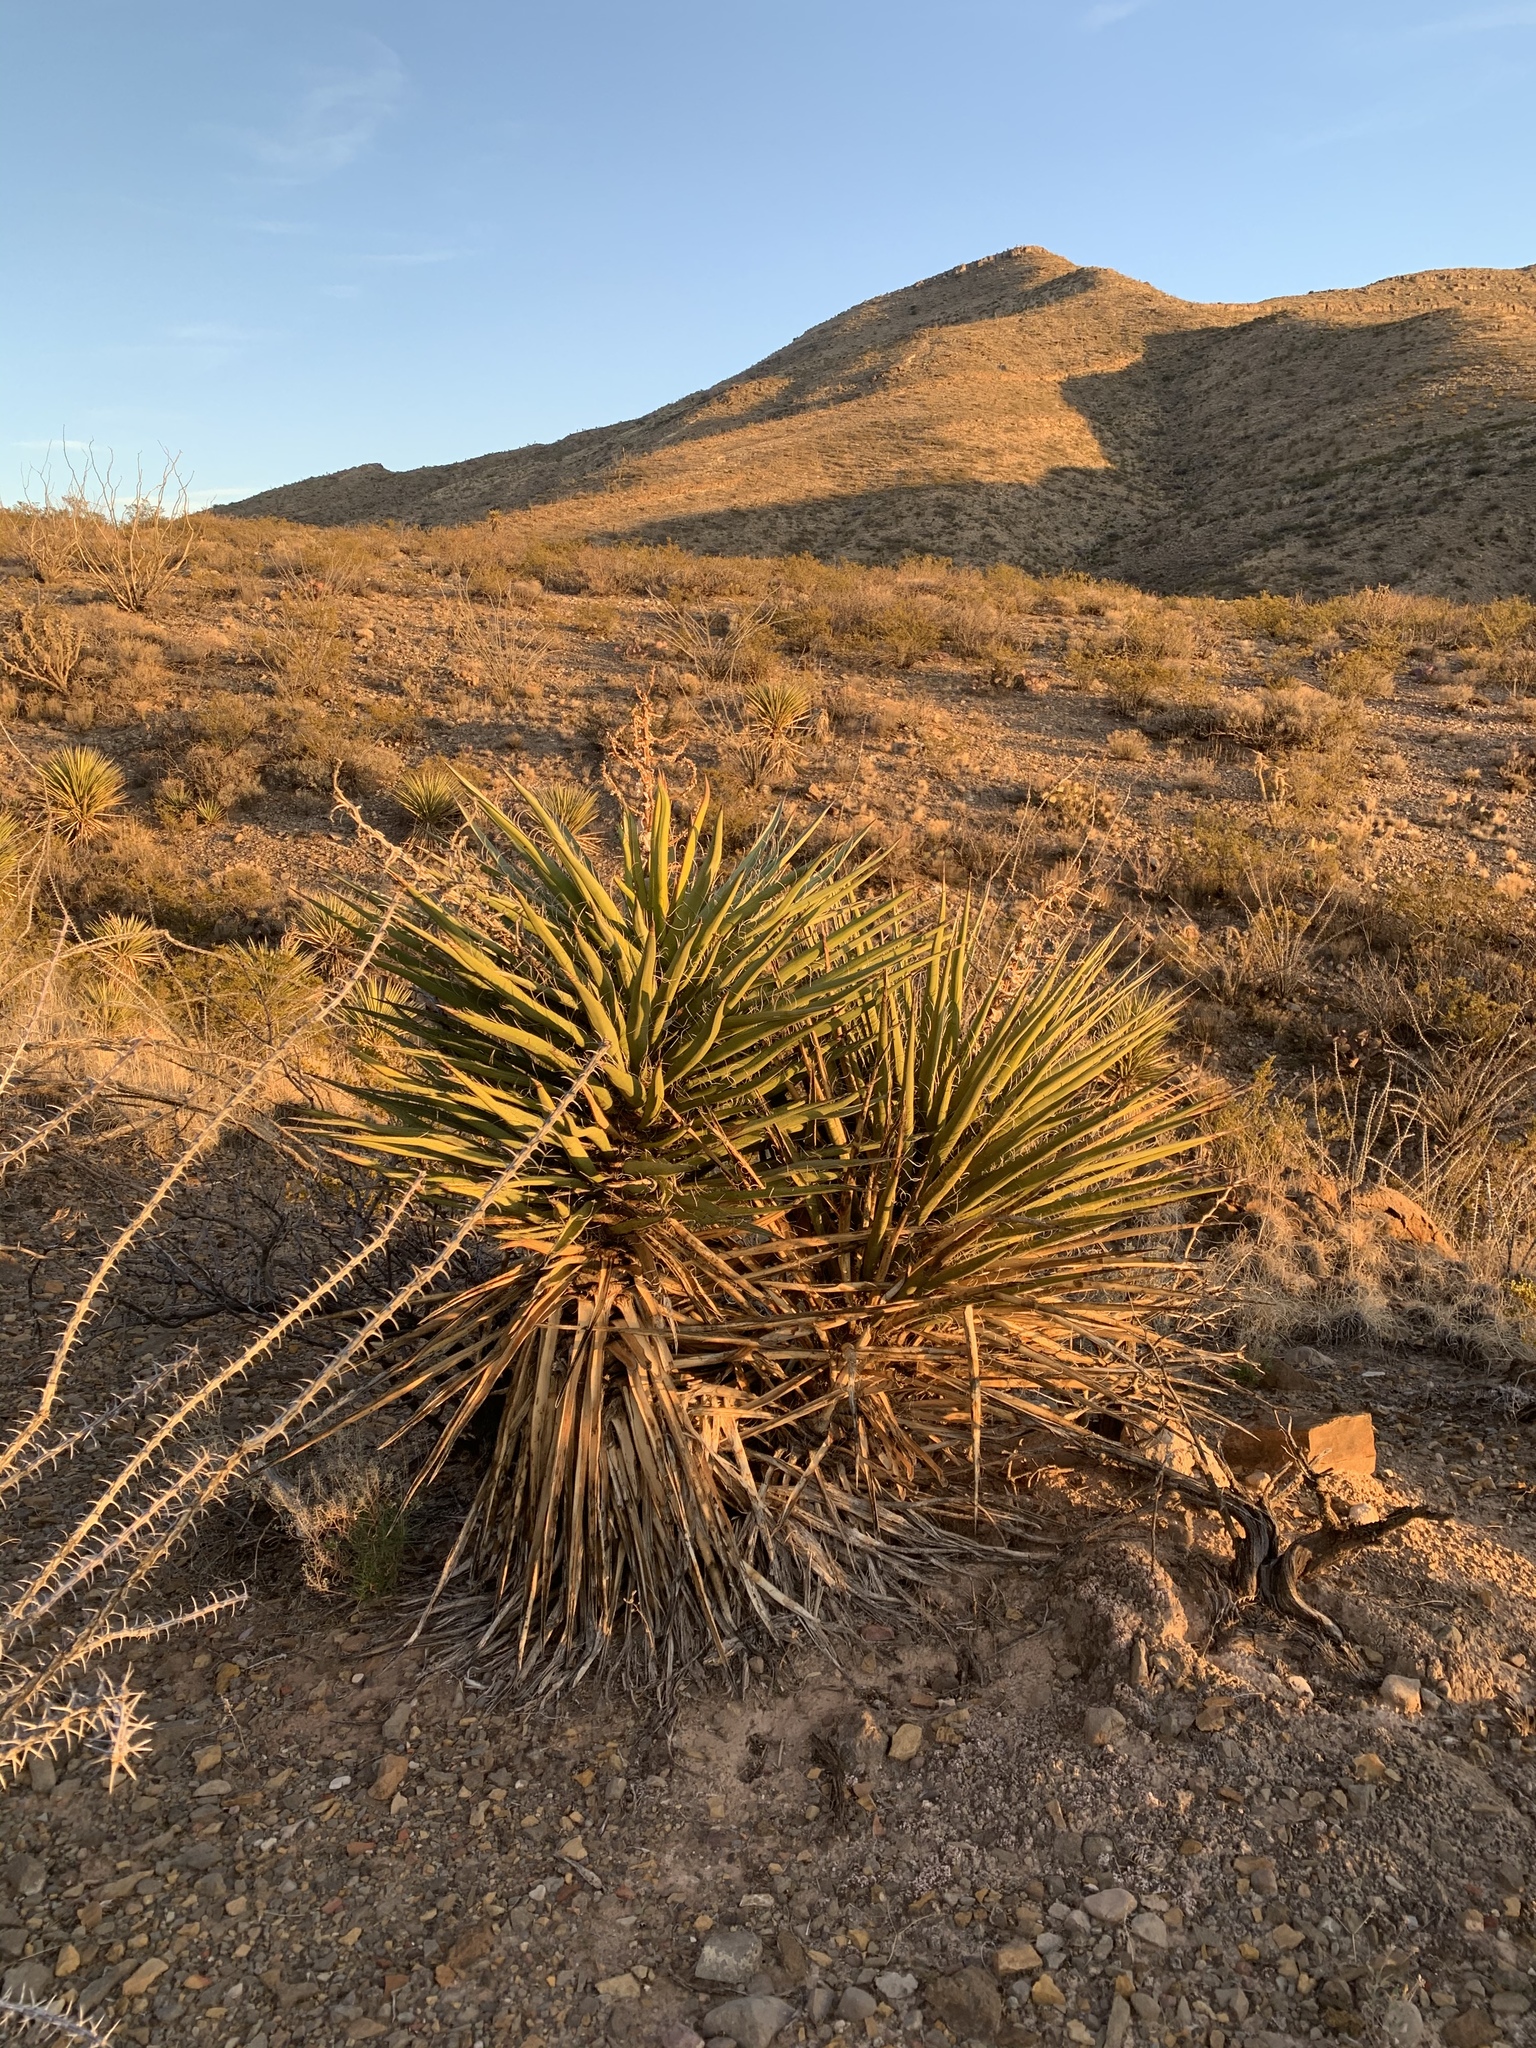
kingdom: Plantae
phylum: Tracheophyta
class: Liliopsida
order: Asparagales
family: Asparagaceae
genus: Yucca
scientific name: Yucca treculiana
